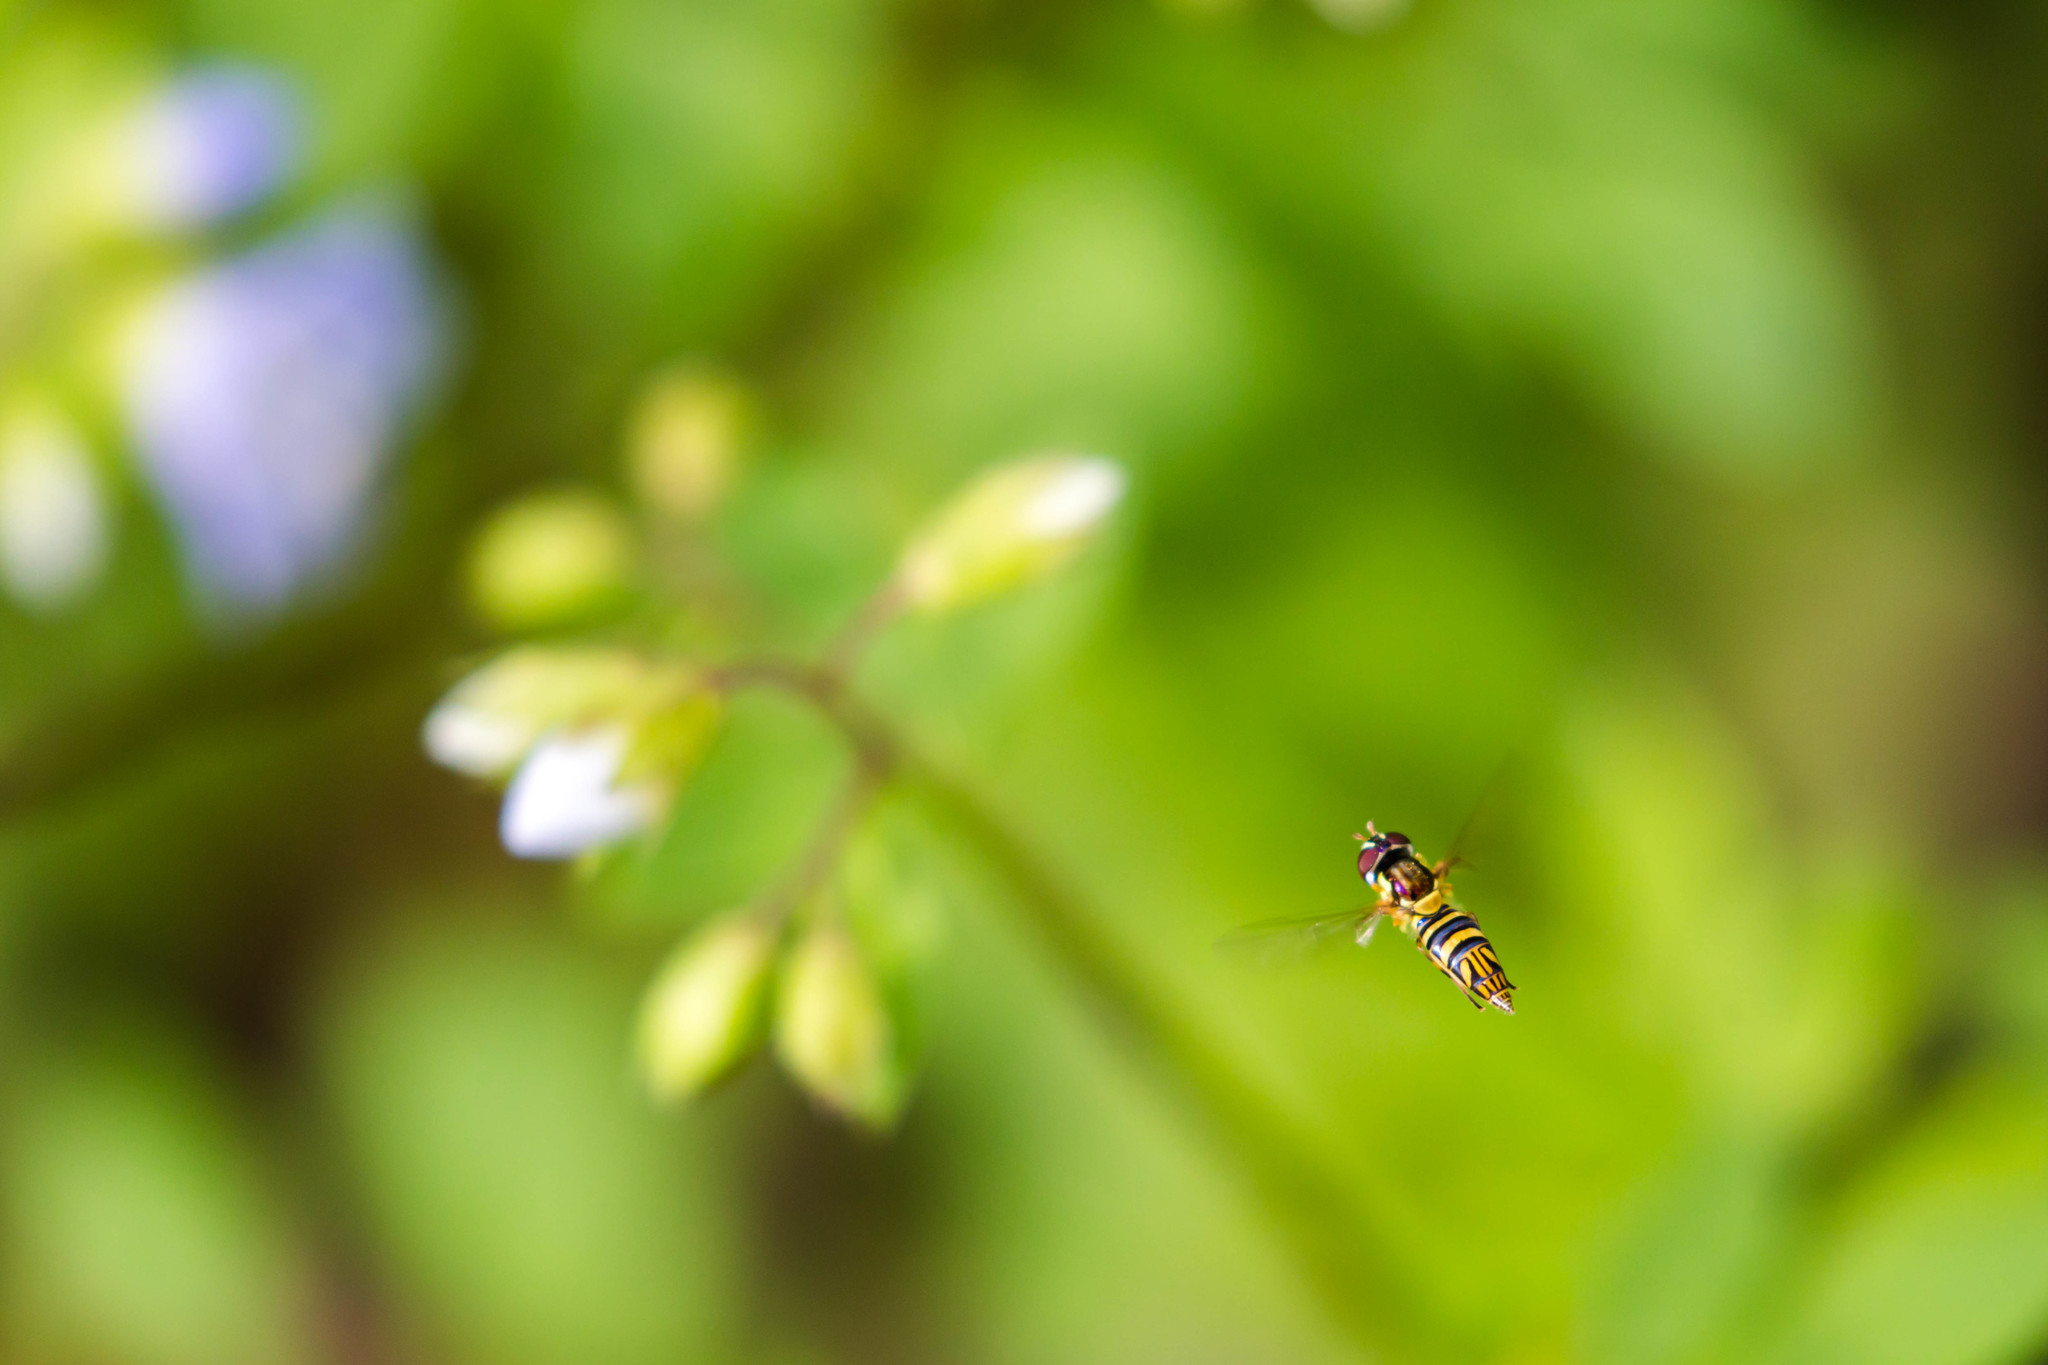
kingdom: Animalia
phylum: Arthropoda
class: Insecta
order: Diptera
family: Syrphidae
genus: Allograpta
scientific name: Allograpta obliqua
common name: Common oblique syrphid
